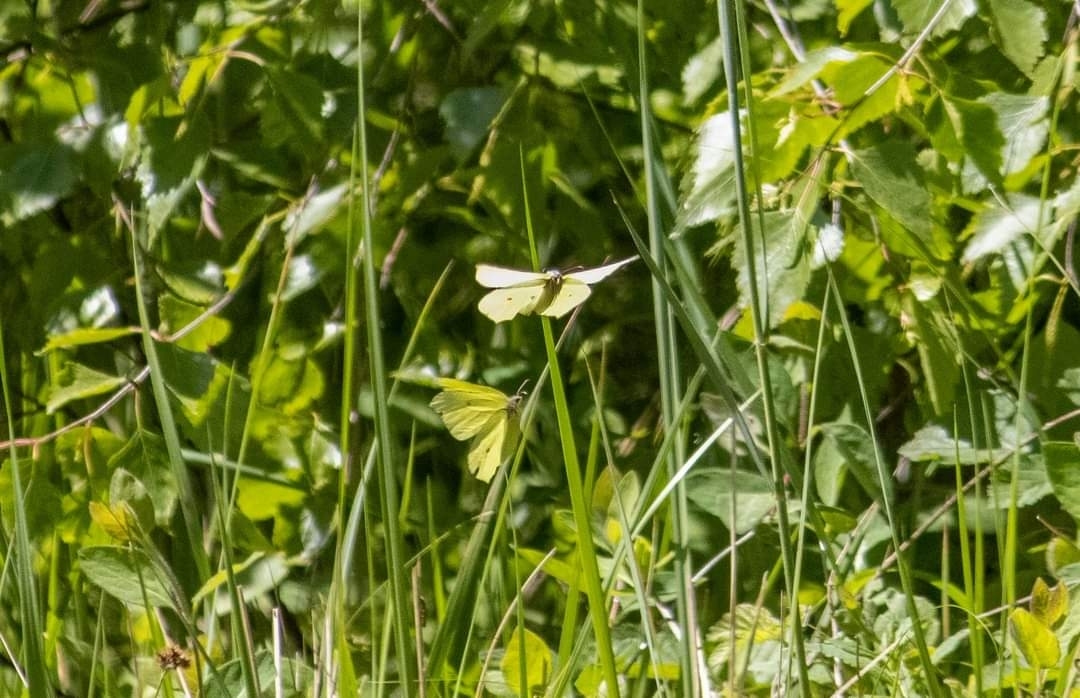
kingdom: Animalia
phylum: Arthropoda
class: Insecta
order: Lepidoptera
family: Pieridae
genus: Gonepteryx
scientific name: Gonepteryx rhamni
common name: Brimstone
